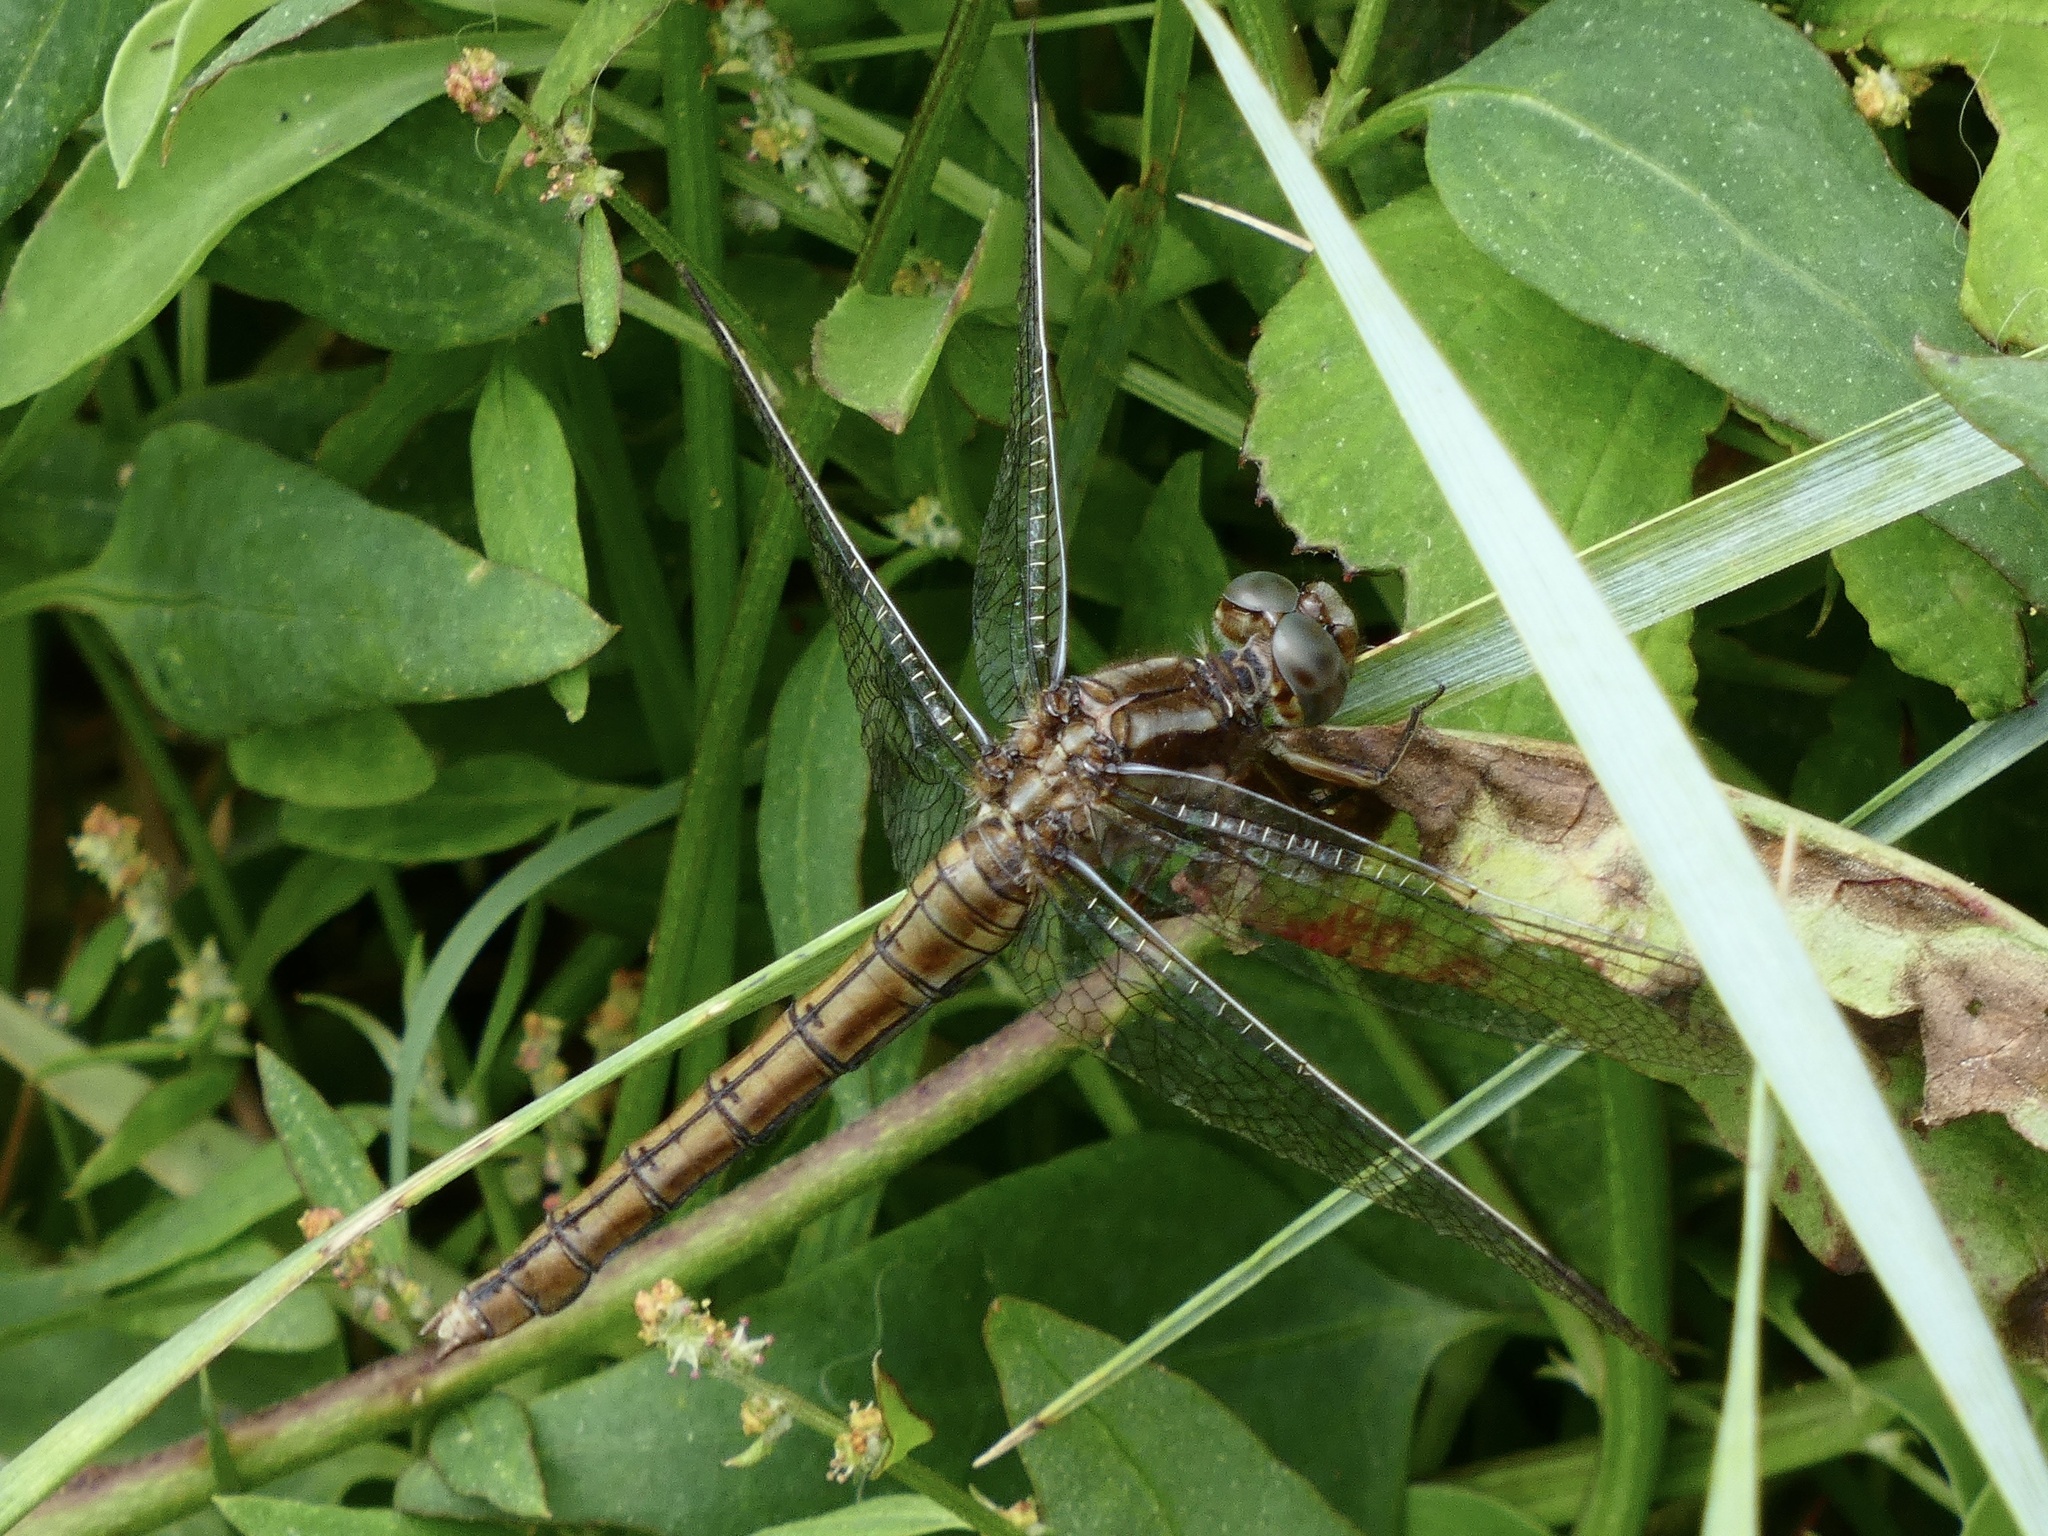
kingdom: Animalia
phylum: Arthropoda
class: Insecta
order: Odonata
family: Libellulidae
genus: Orthetrum
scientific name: Orthetrum coerulescens
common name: Keeled skimmer
